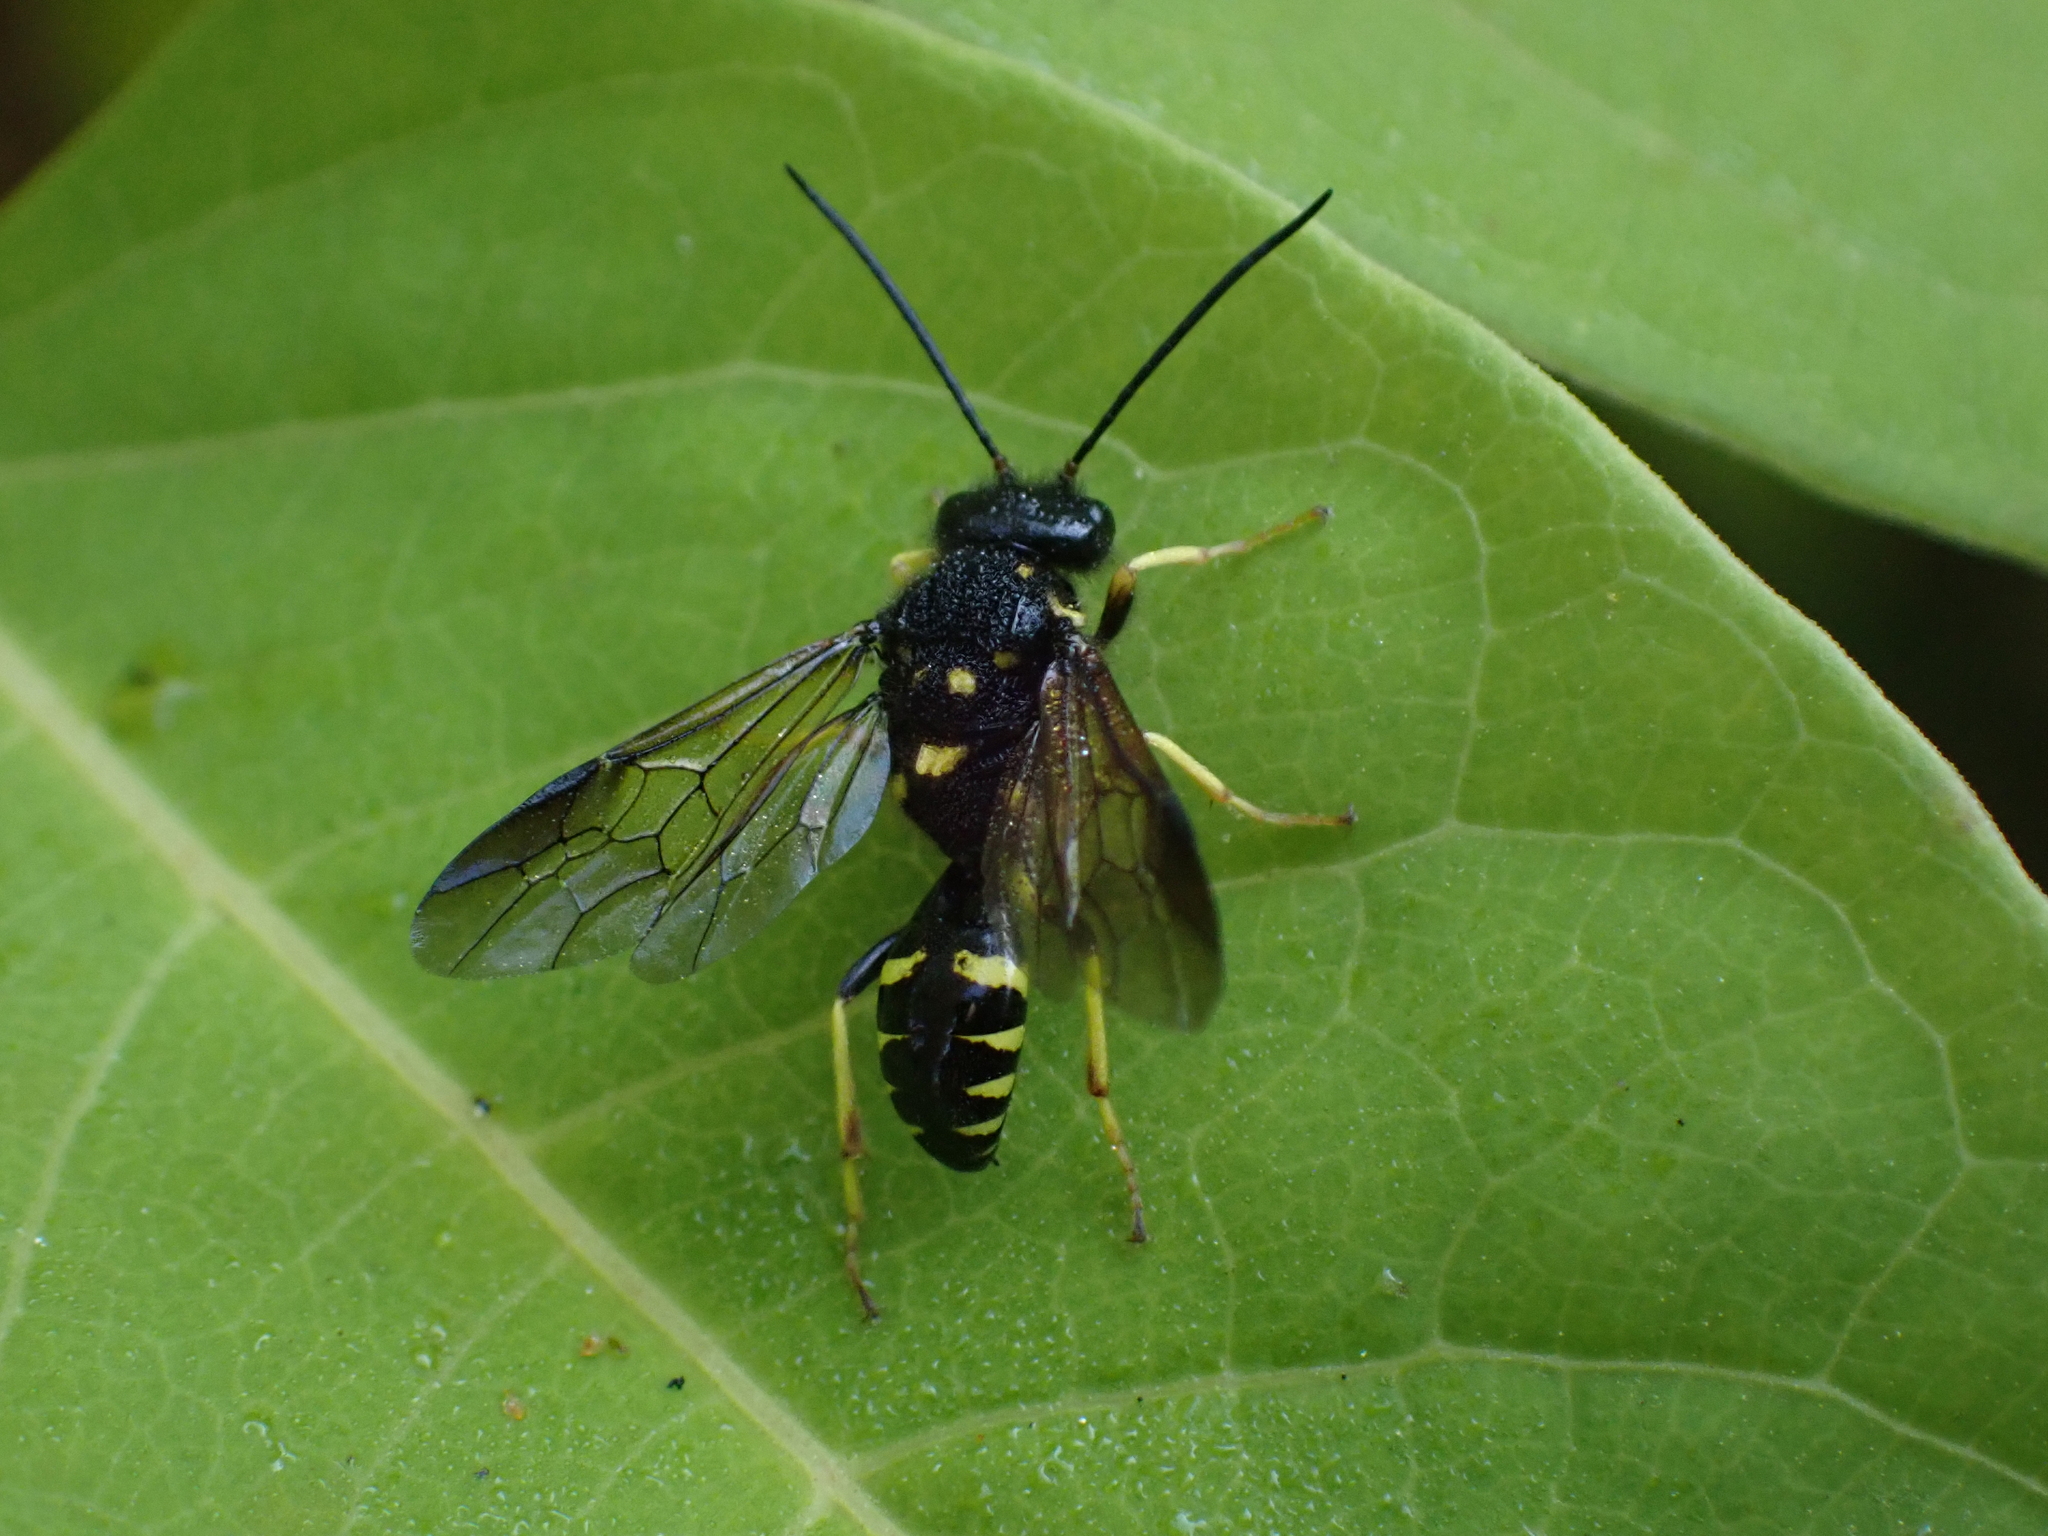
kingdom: Animalia
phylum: Arthropoda
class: Insecta
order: Hymenoptera
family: Trigonalidae
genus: Bareogonalos
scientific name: Bareogonalos
